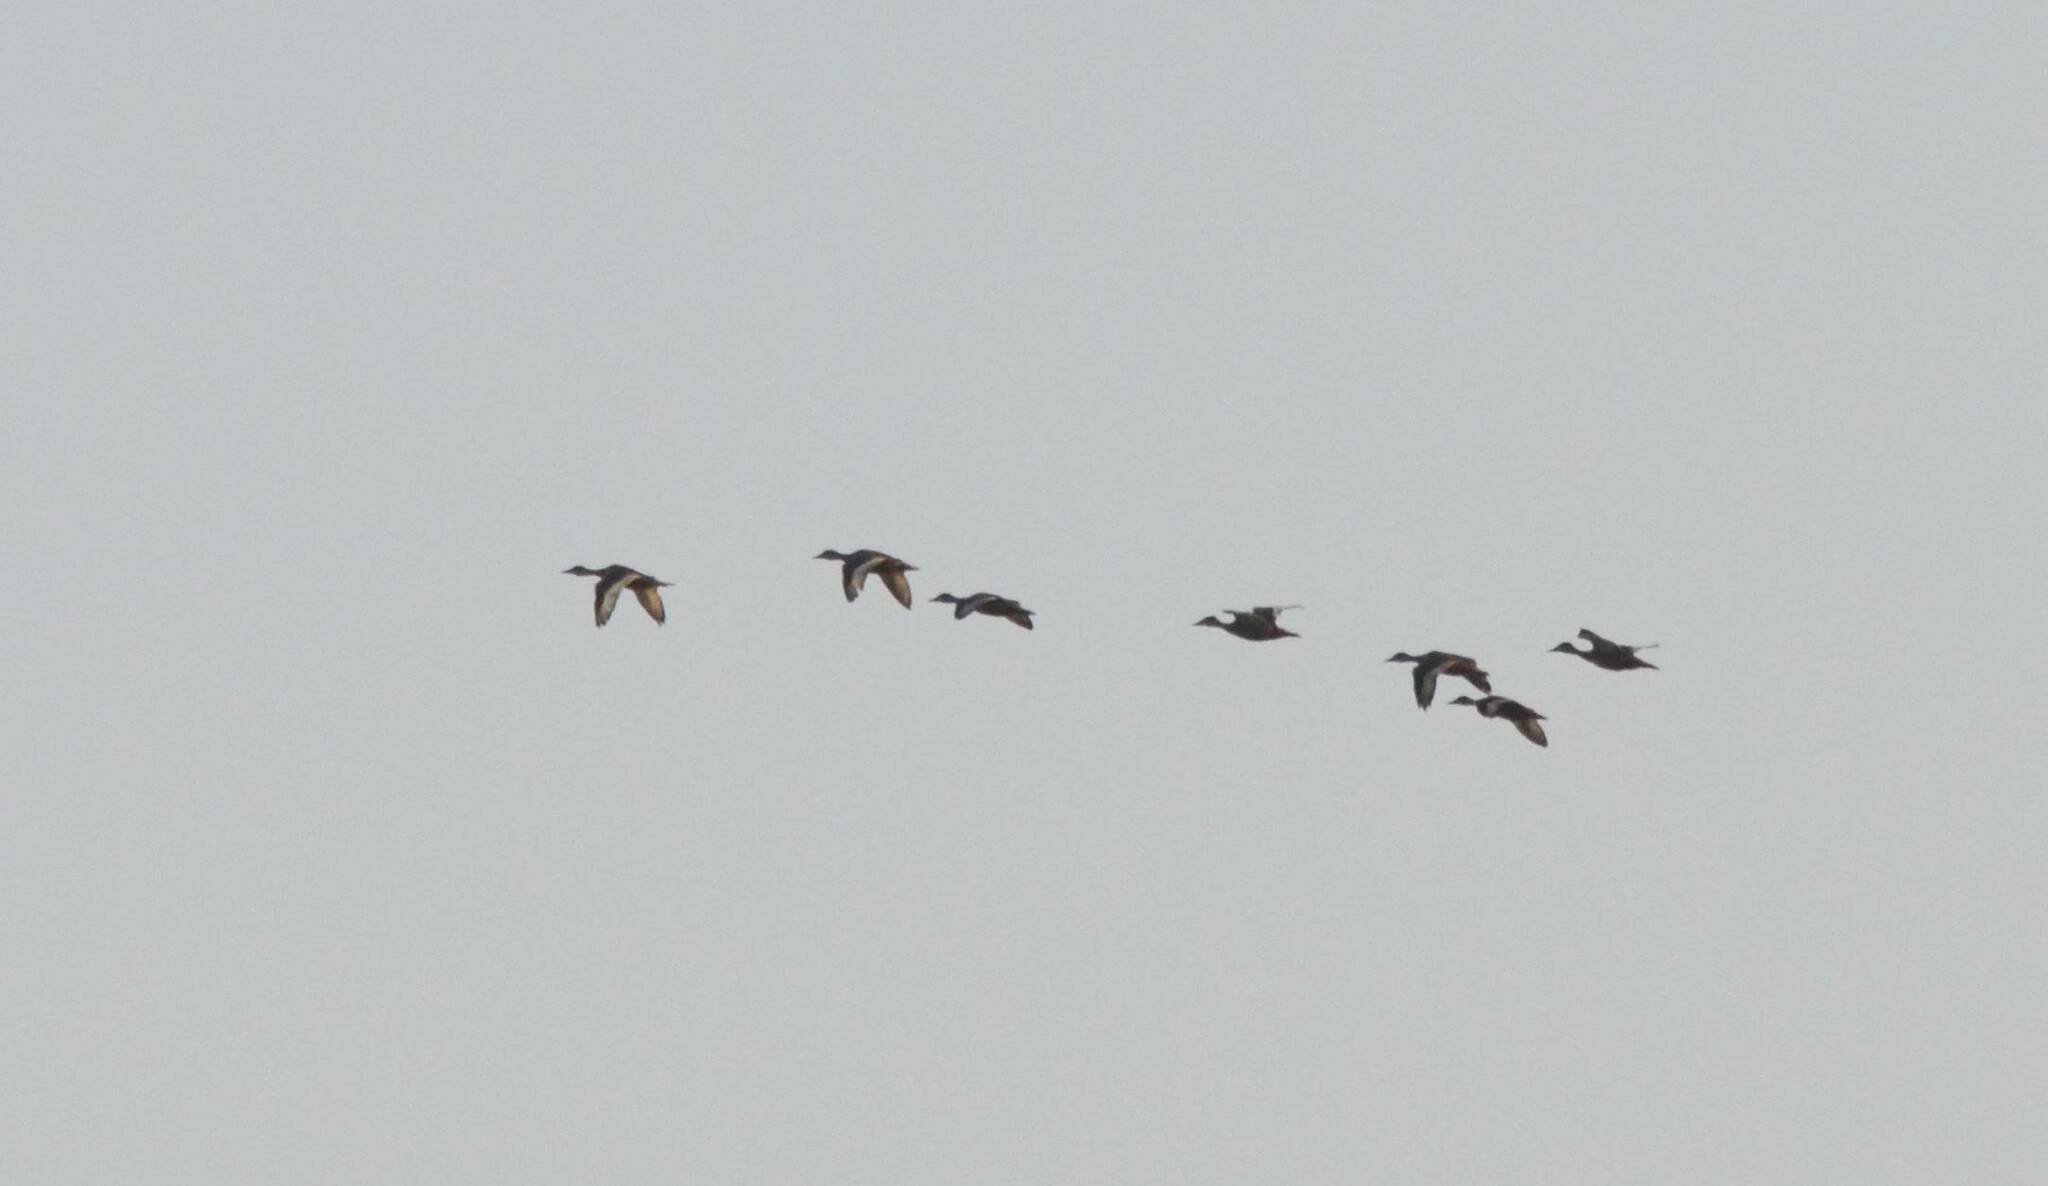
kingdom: Animalia
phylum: Chordata
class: Aves
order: Anseriformes
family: Anatidae
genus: Aythya
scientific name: Aythya nyroca
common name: Ferruginous duck
